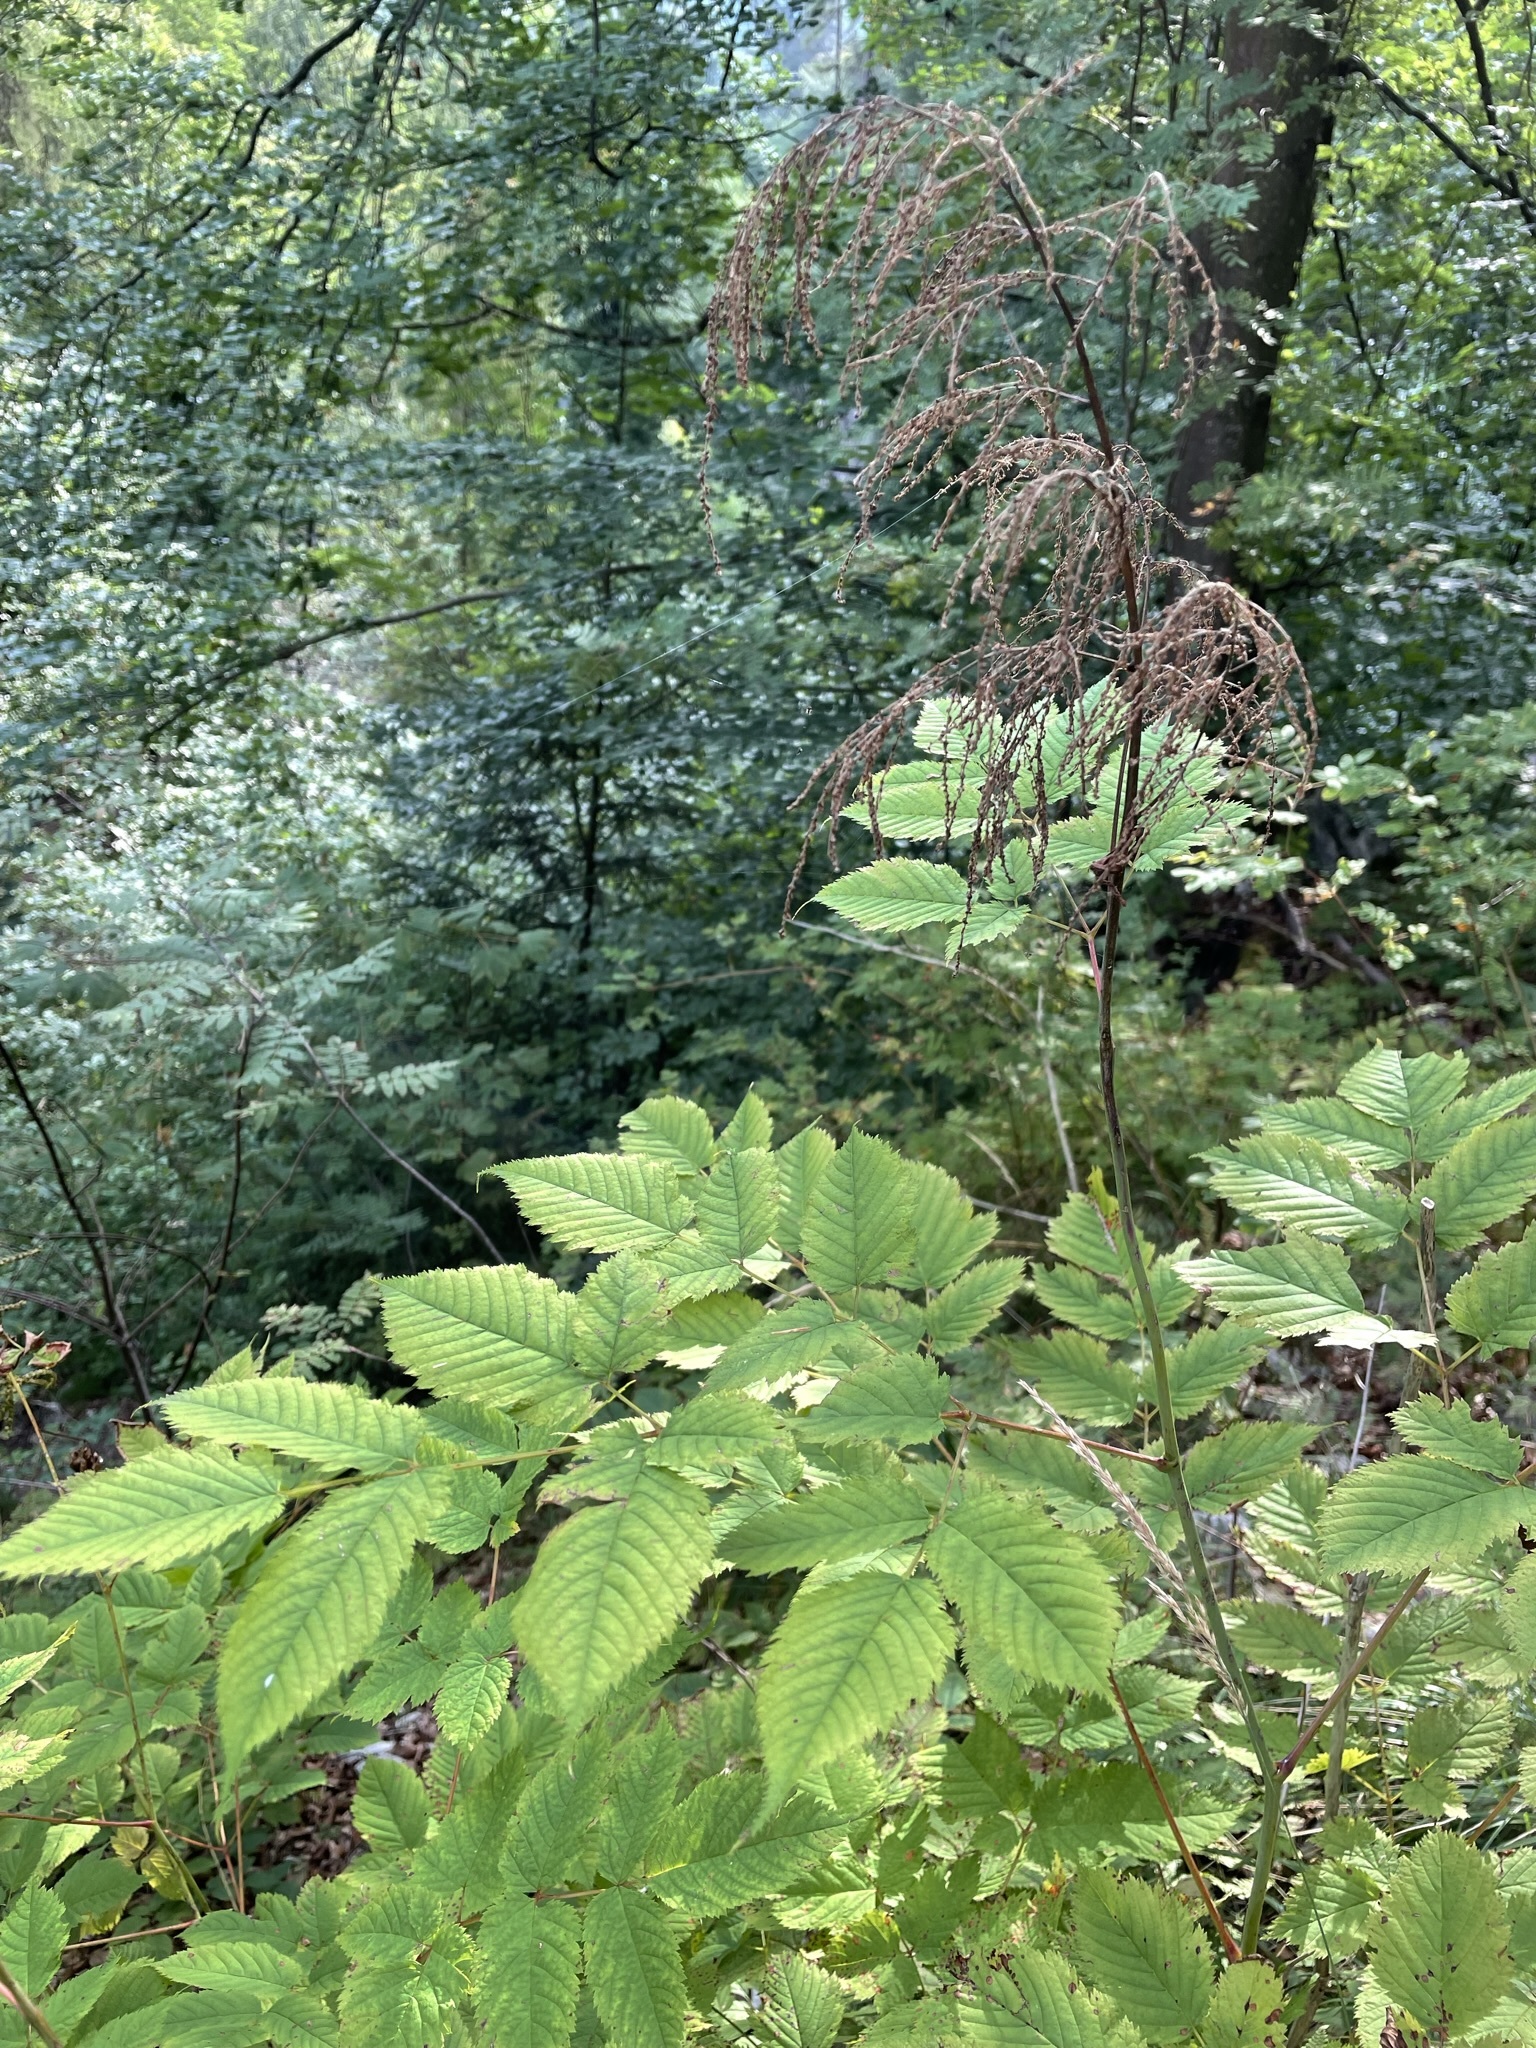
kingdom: Plantae
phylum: Tracheophyta
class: Magnoliopsida
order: Rosales
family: Rosaceae
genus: Aruncus
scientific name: Aruncus dioicus
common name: Buck's-beard
